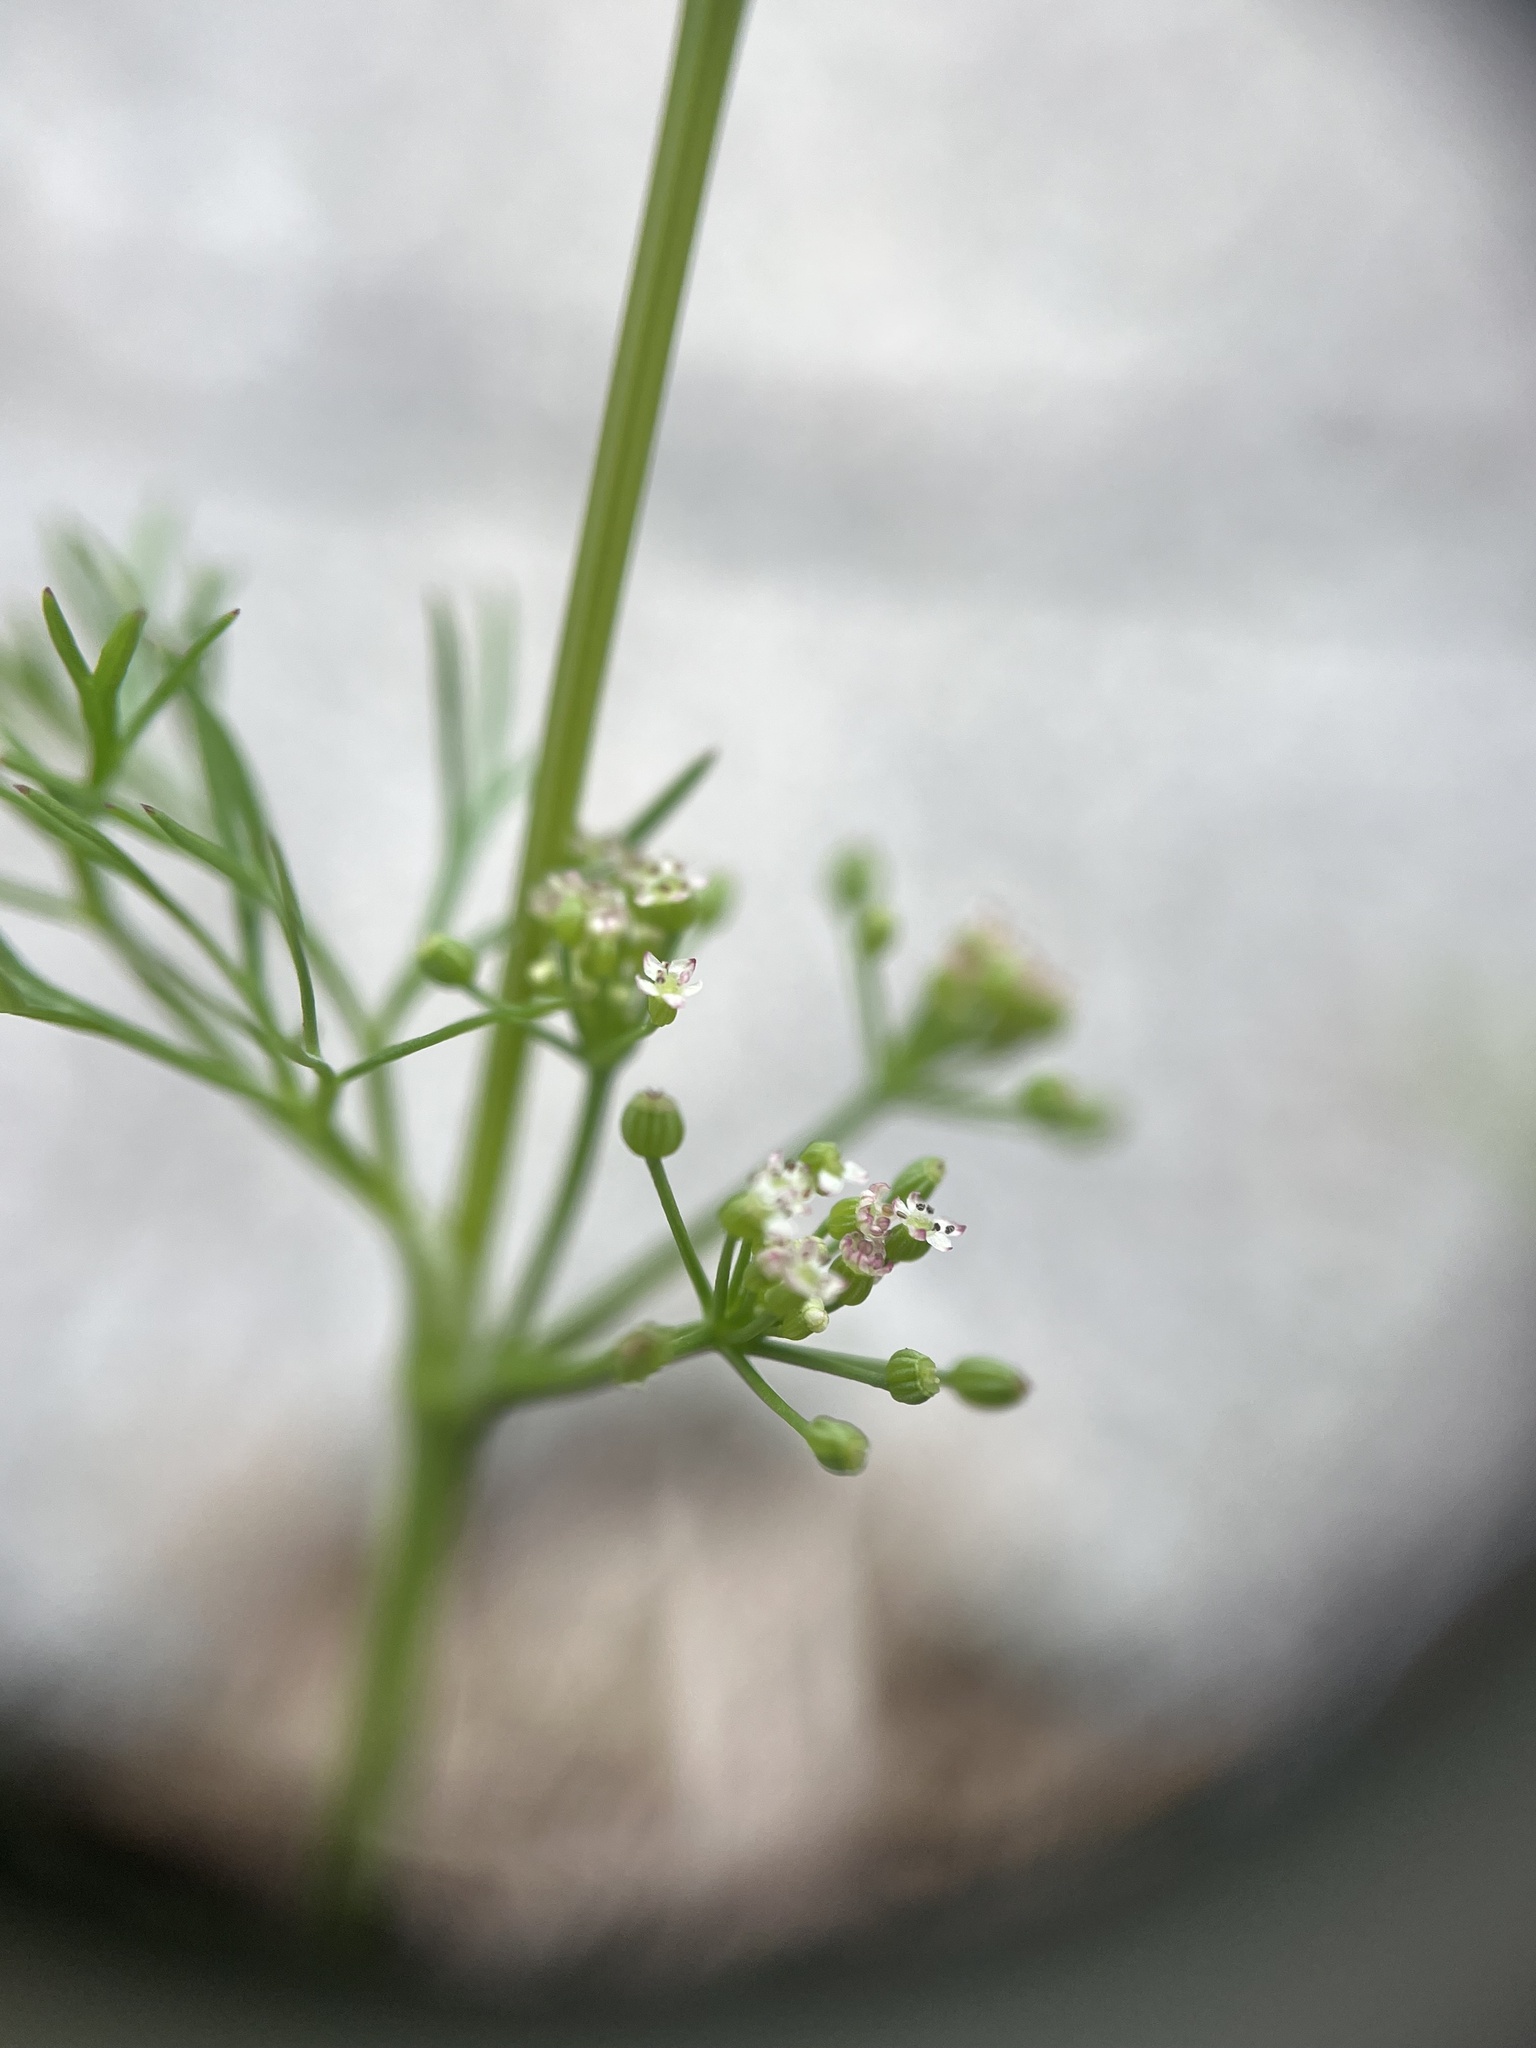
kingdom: Plantae
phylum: Tracheophyta
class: Magnoliopsida
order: Apiales
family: Apiaceae
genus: Cyclospermum
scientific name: Cyclospermum leptophyllum
